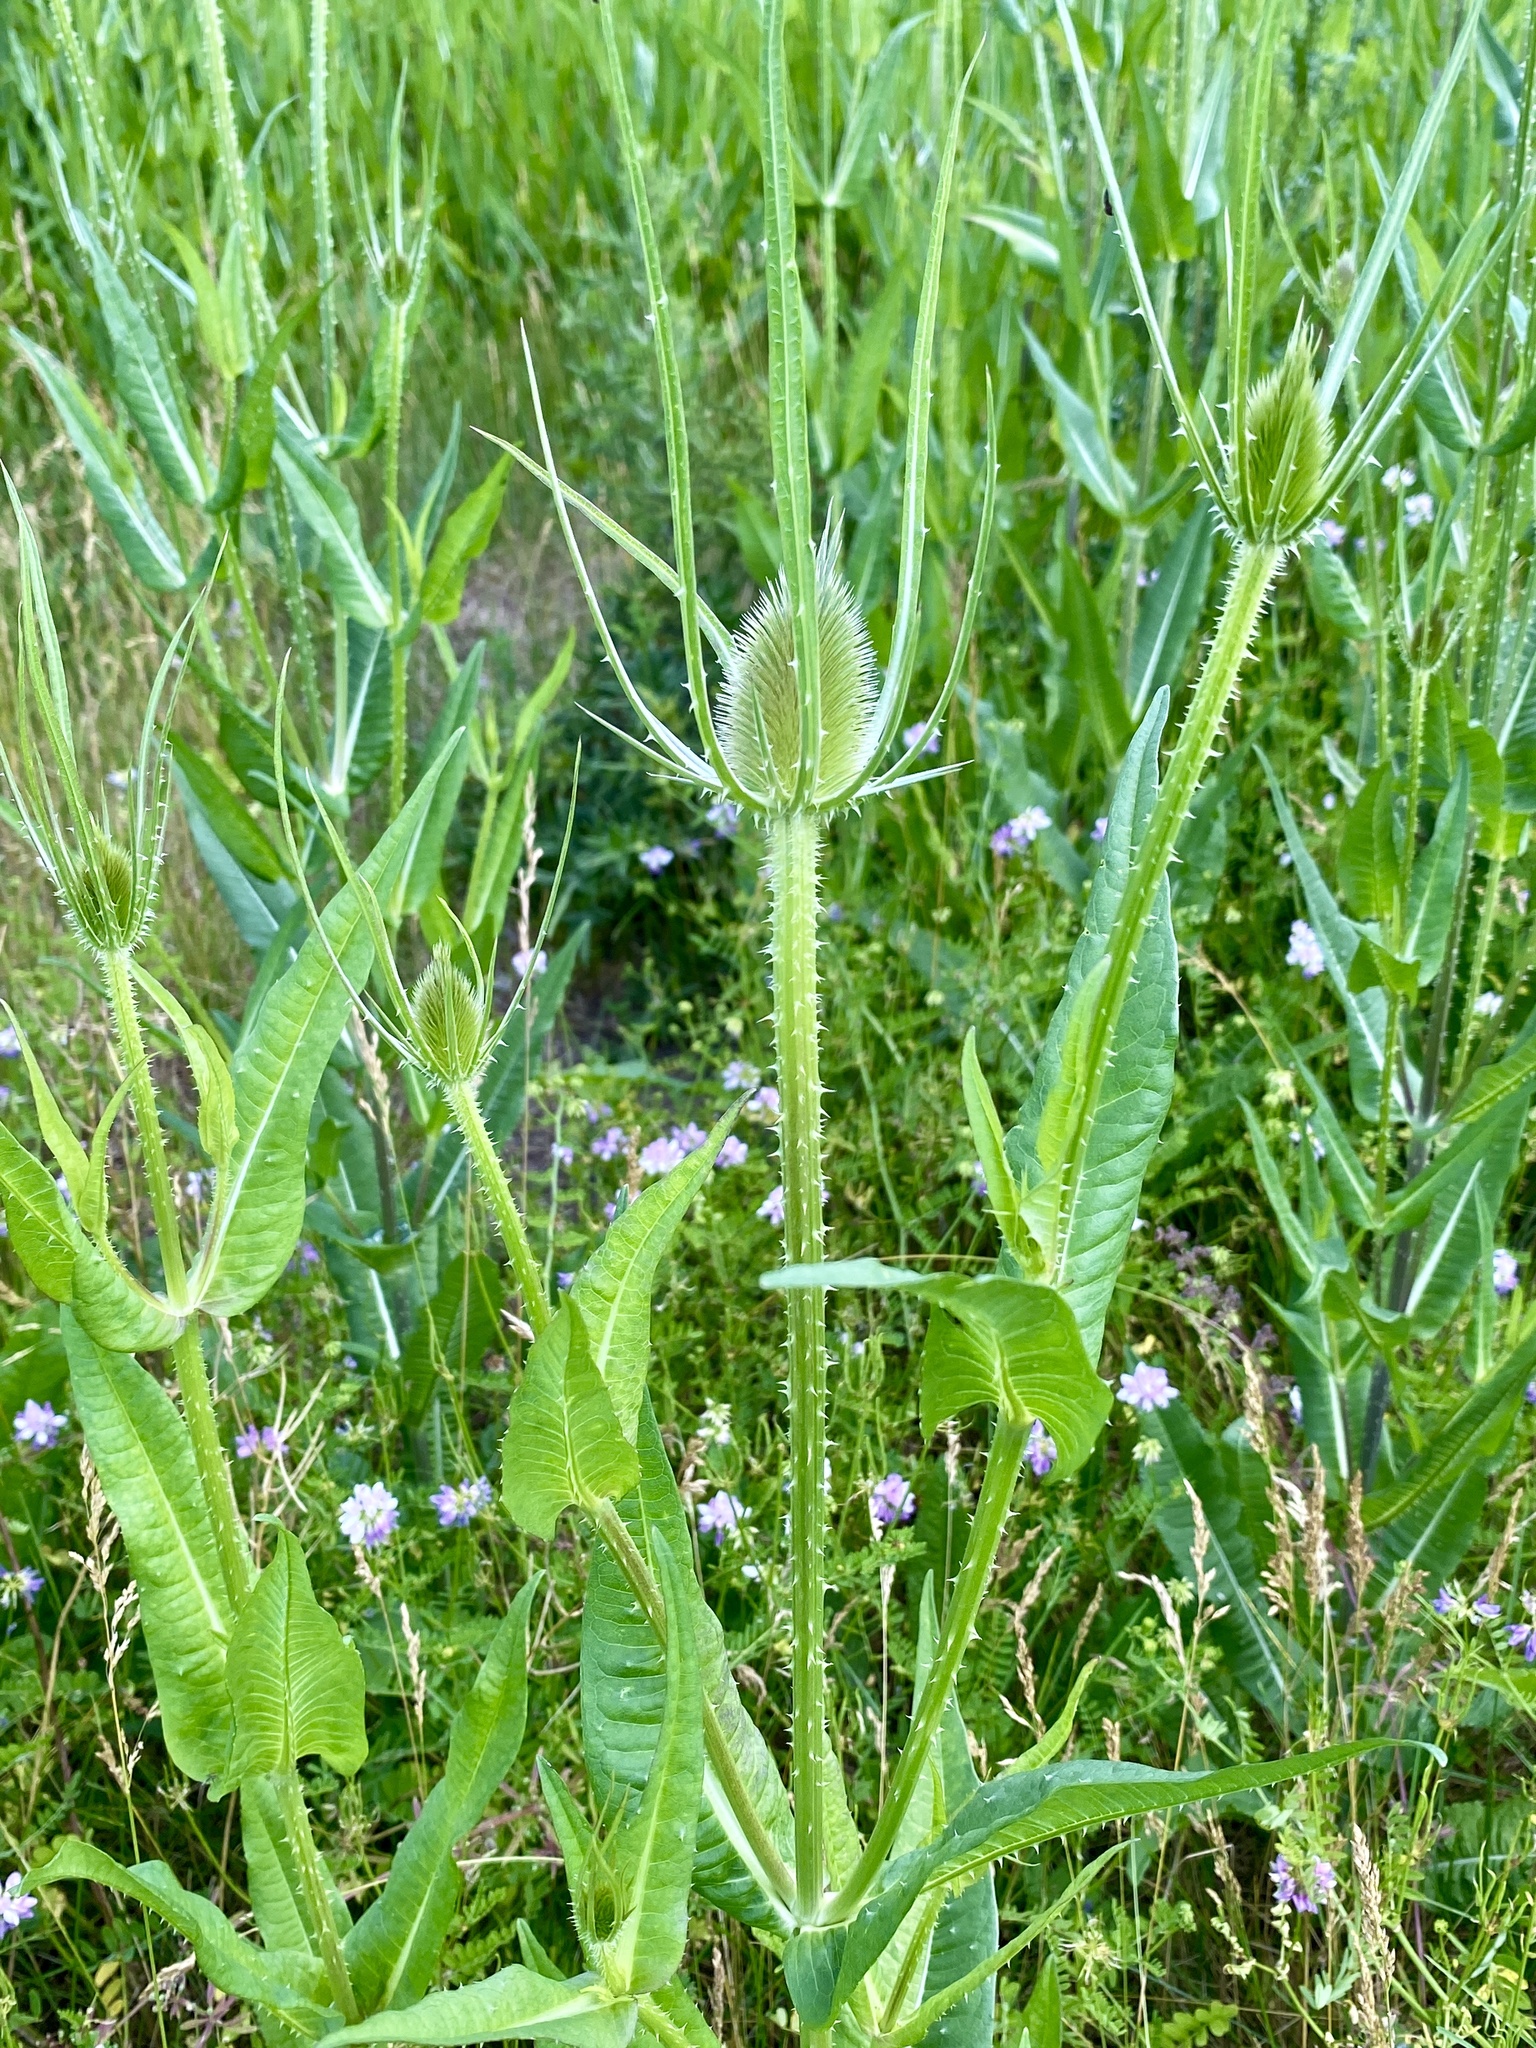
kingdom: Plantae
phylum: Tracheophyta
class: Magnoliopsida
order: Dipsacales
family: Caprifoliaceae
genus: Dipsacus
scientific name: Dipsacus fullonum
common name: Teasel
